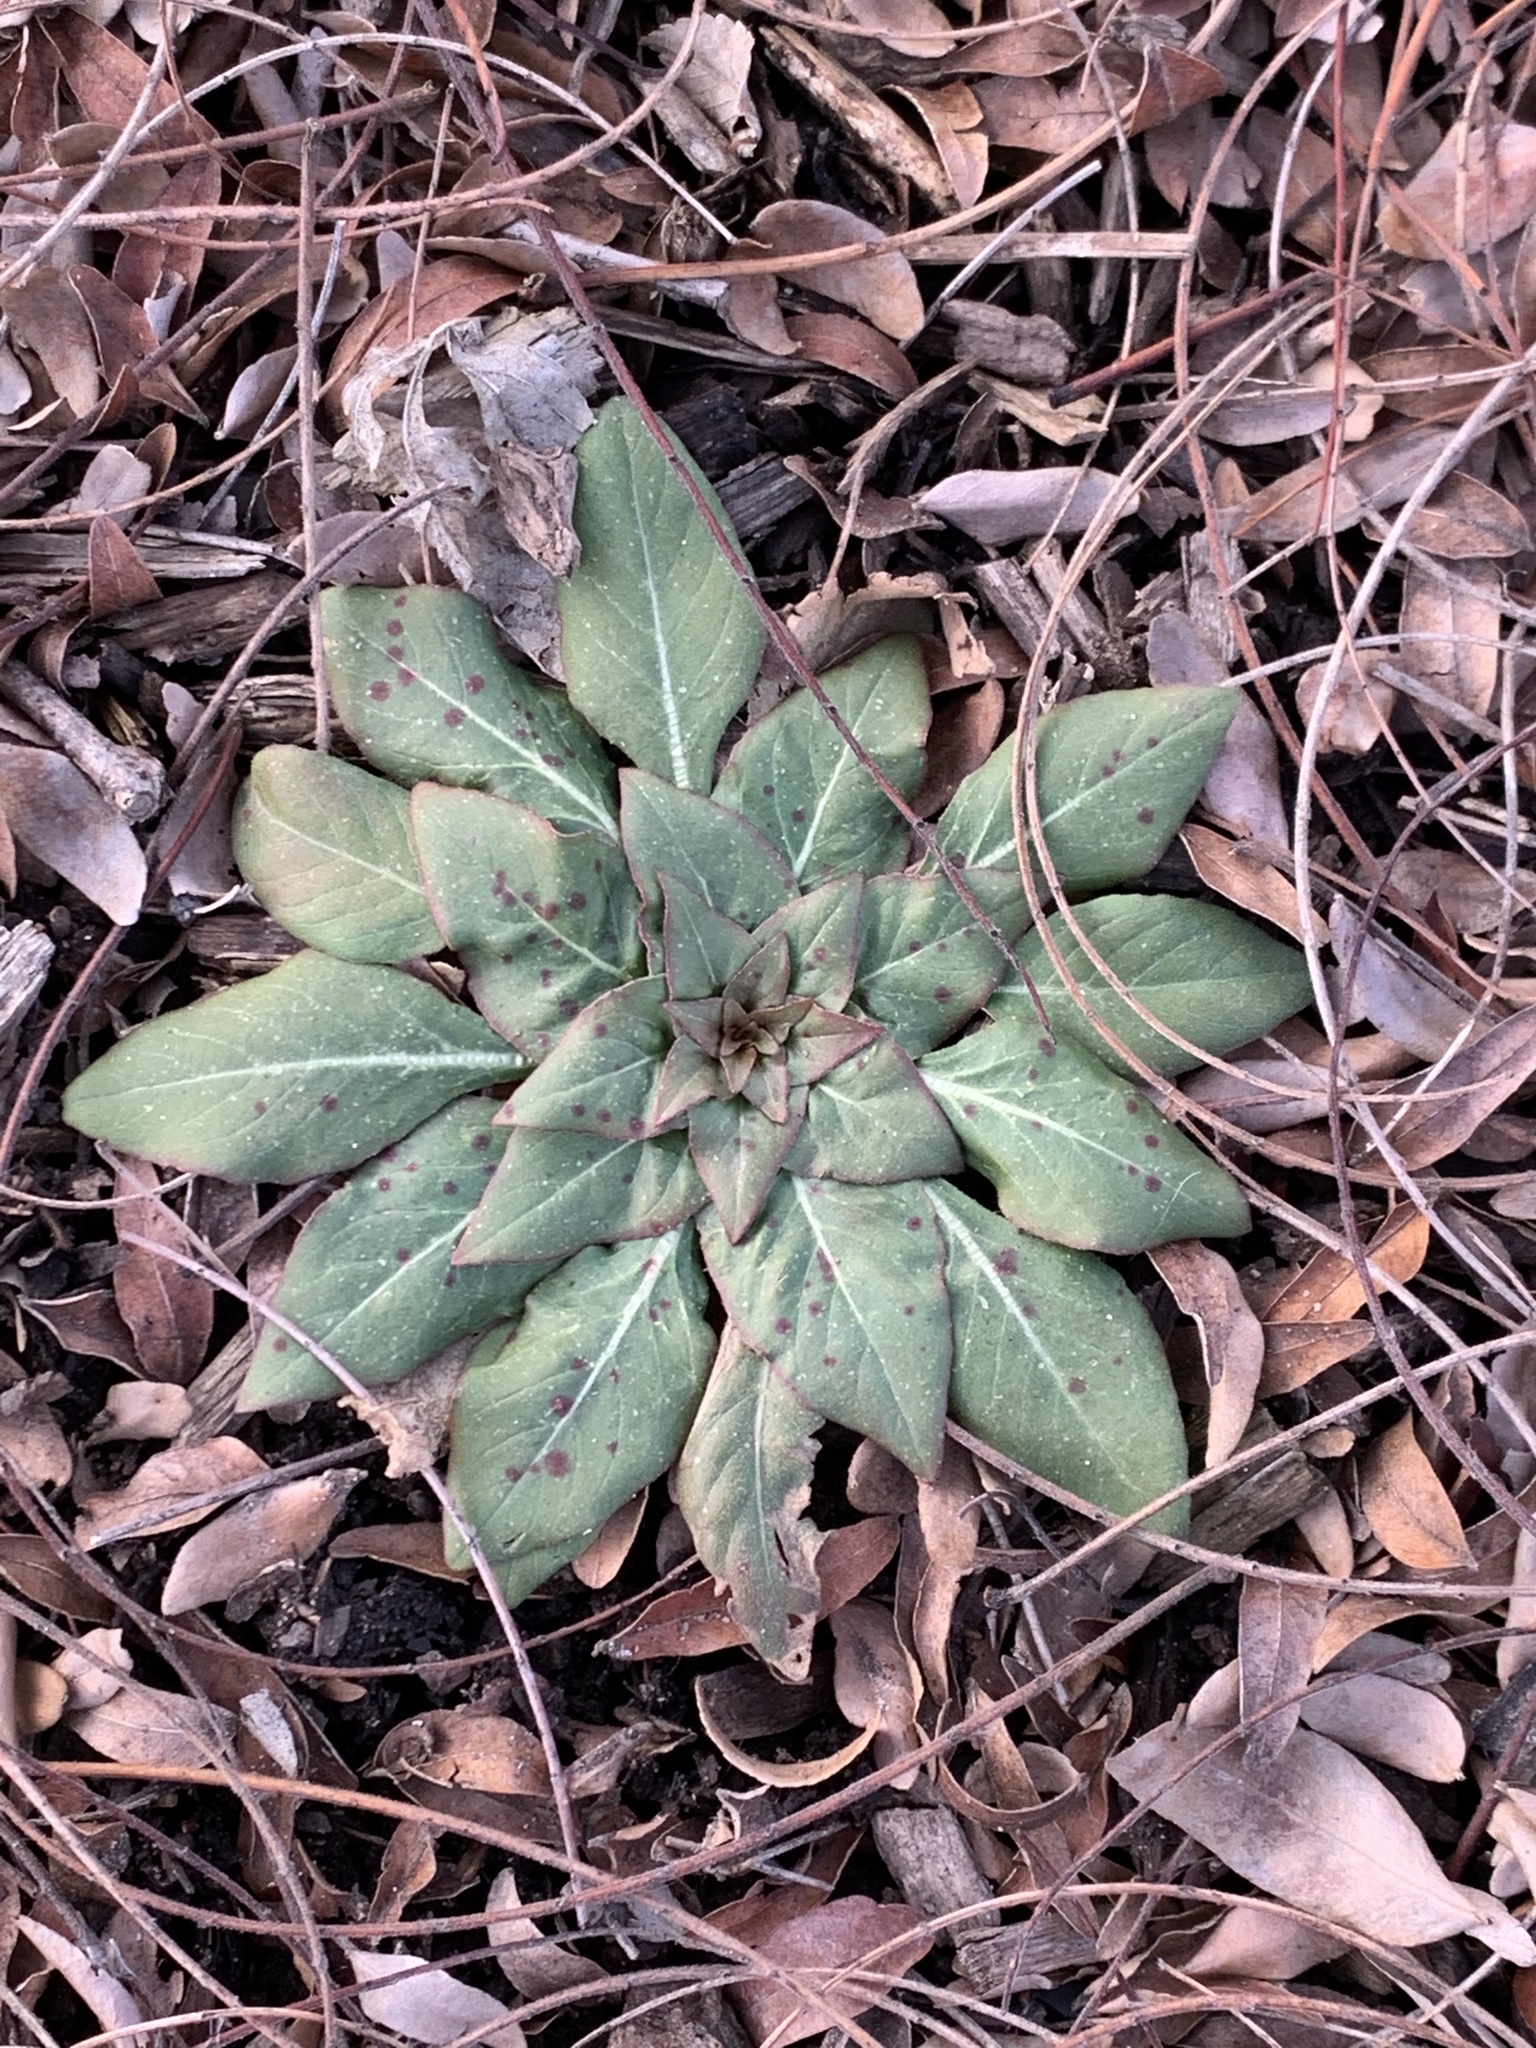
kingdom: Plantae
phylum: Tracheophyta
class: Magnoliopsida
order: Myrtales
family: Onagraceae
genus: Oenothera
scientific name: Oenothera biennis
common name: Common evening-primrose
